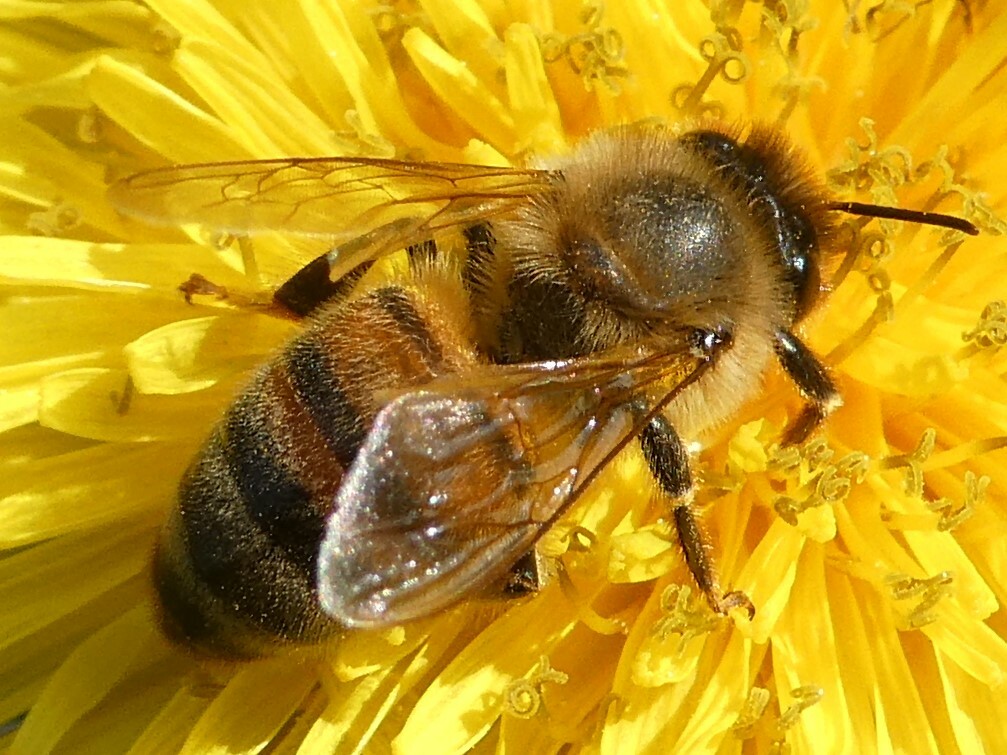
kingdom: Animalia
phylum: Arthropoda
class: Insecta
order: Hymenoptera
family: Apidae
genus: Apis
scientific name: Apis mellifera
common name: Honey bee
